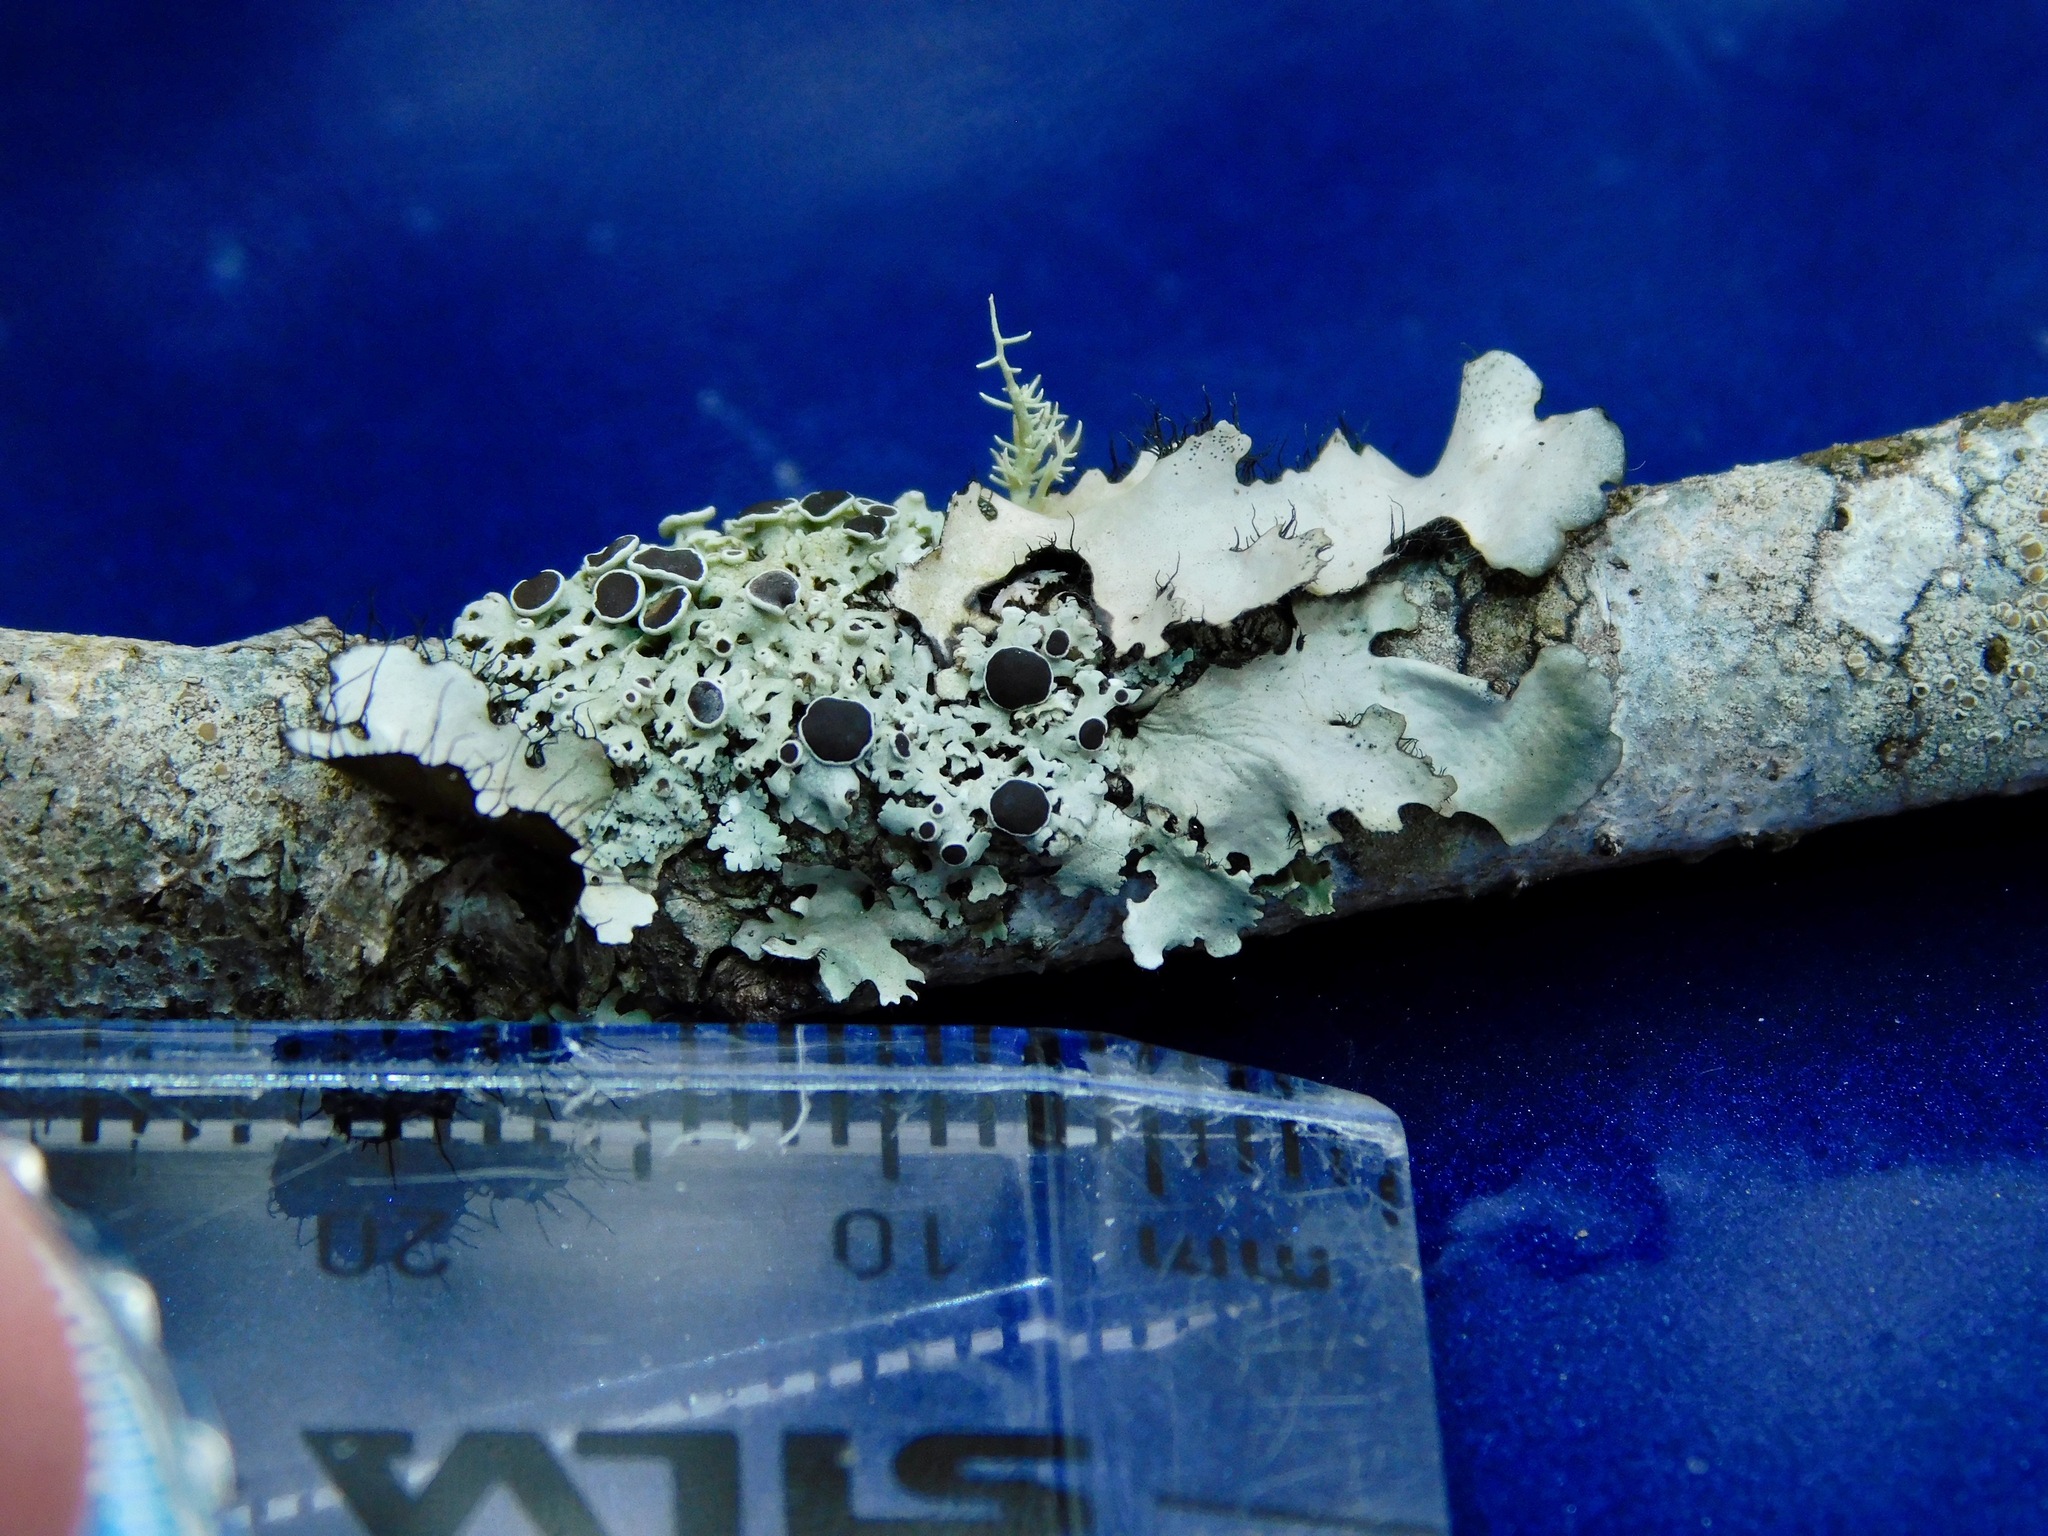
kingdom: Fungi
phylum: Ascomycota
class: Lecanoromycetes
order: Caliciales
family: Physciaceae
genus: Physcia
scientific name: Physcia stellaris
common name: Star rosette lichen
